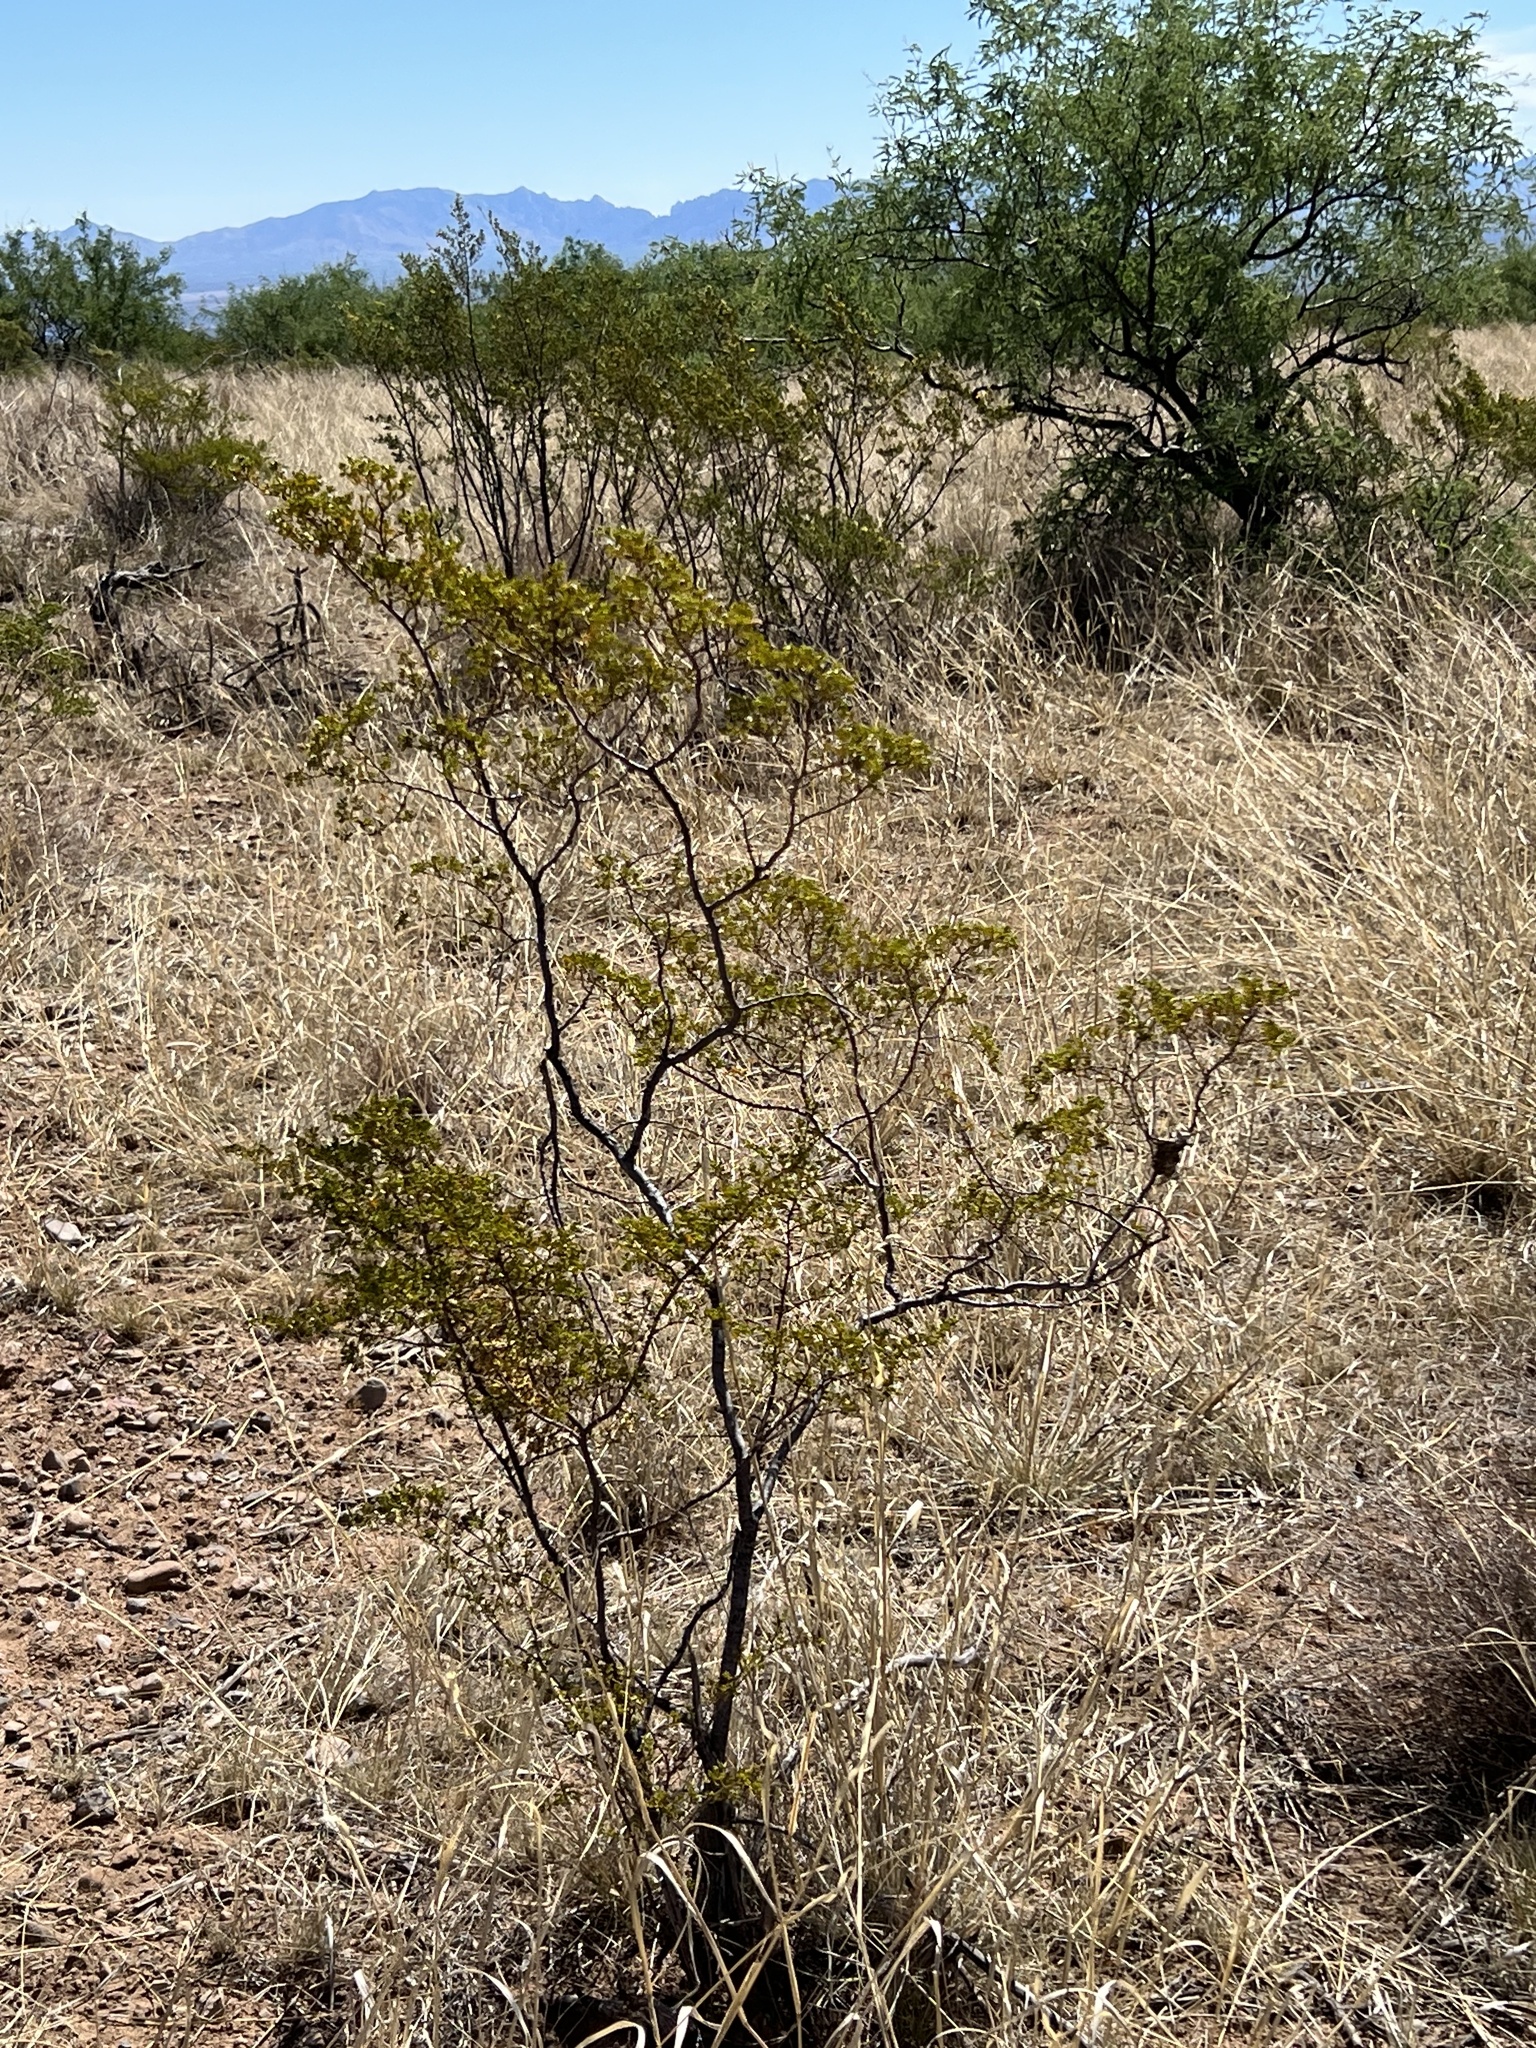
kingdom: Plantae
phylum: Tracheophyta
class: Magnoliopsida
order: Zygophyllales
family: Zygophyllaceae
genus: Larrea
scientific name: Larrea tridentata
